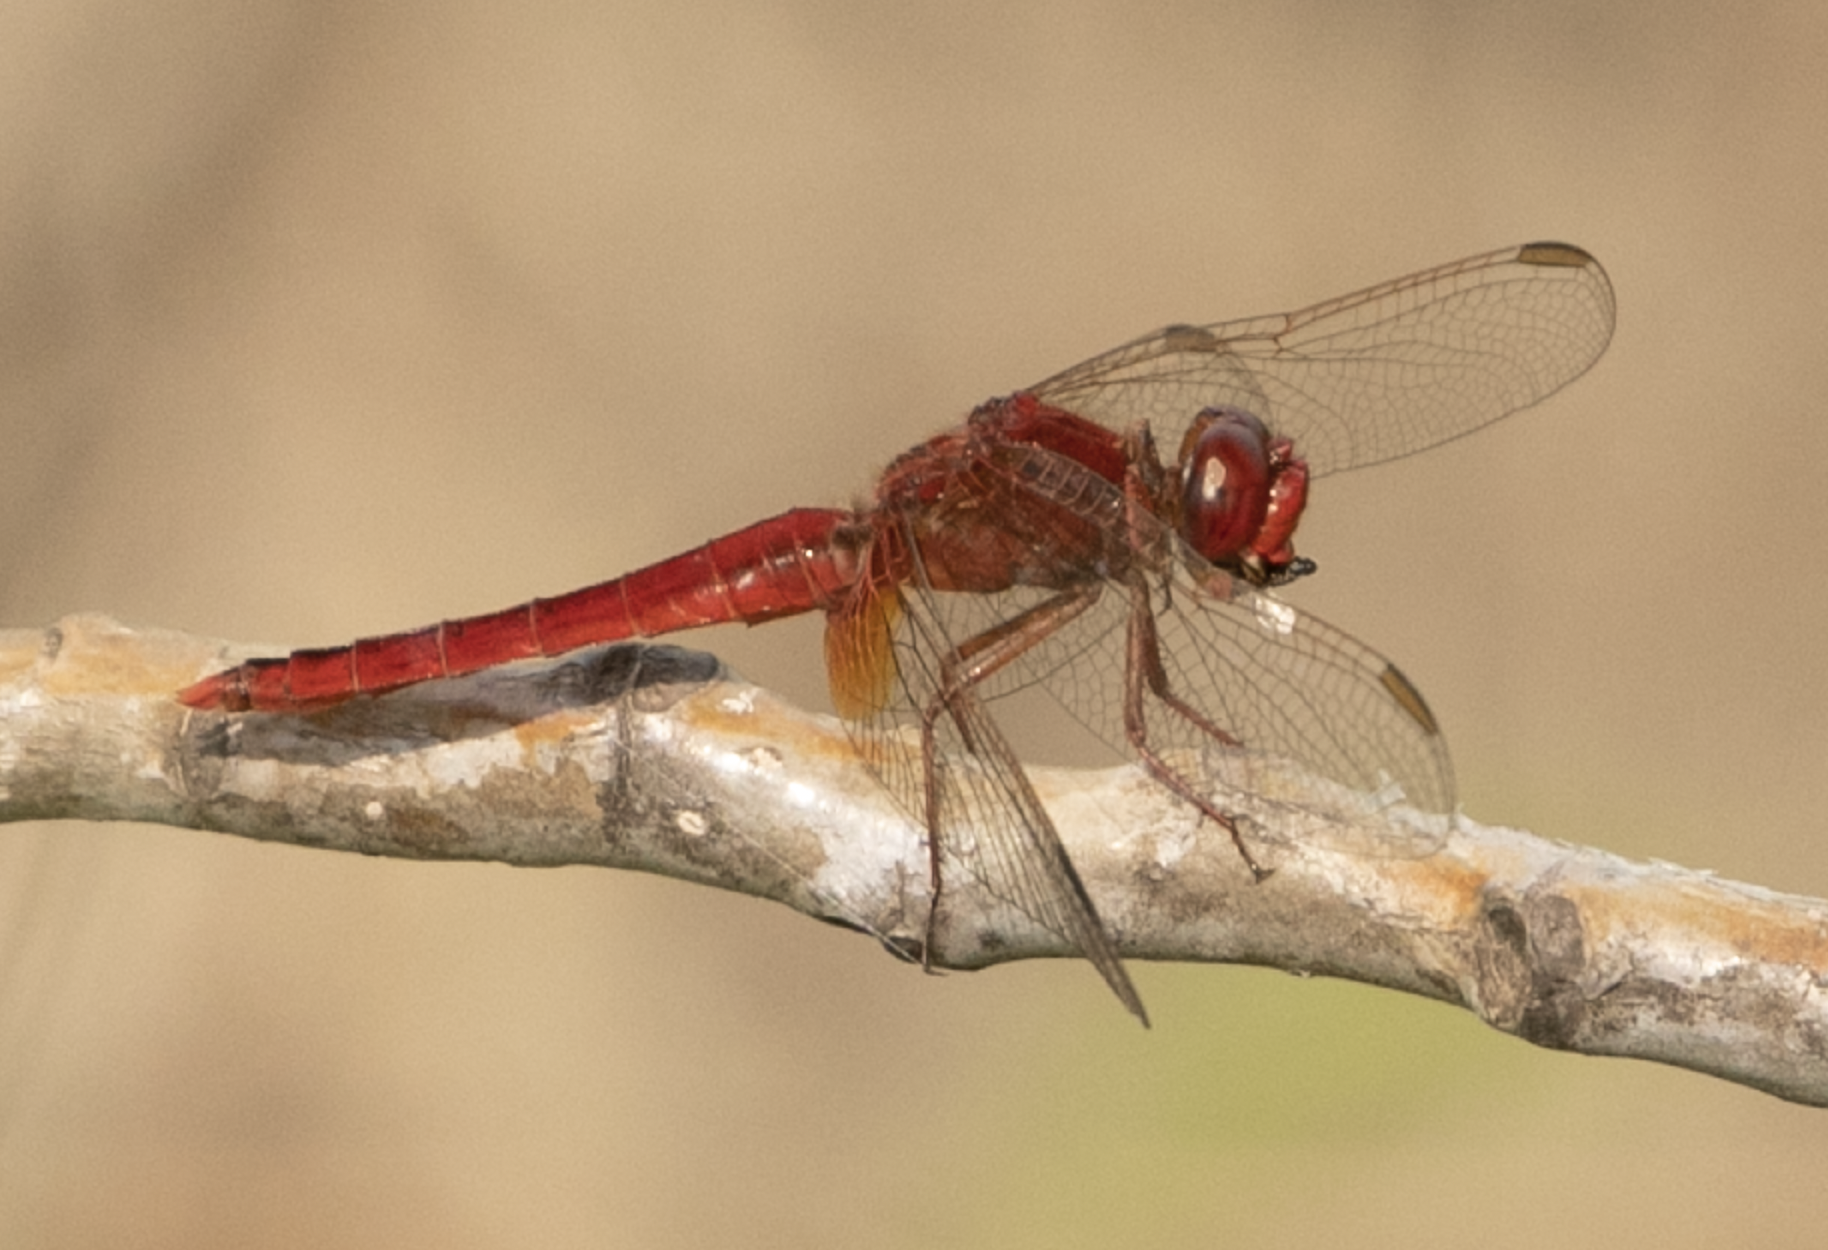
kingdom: Animalia
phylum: Arthropoda
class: Insecta
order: Odonata
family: Libellulidae
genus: Crocothemis
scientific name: Crocothemis erythraea
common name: Scarlet dragonfly
